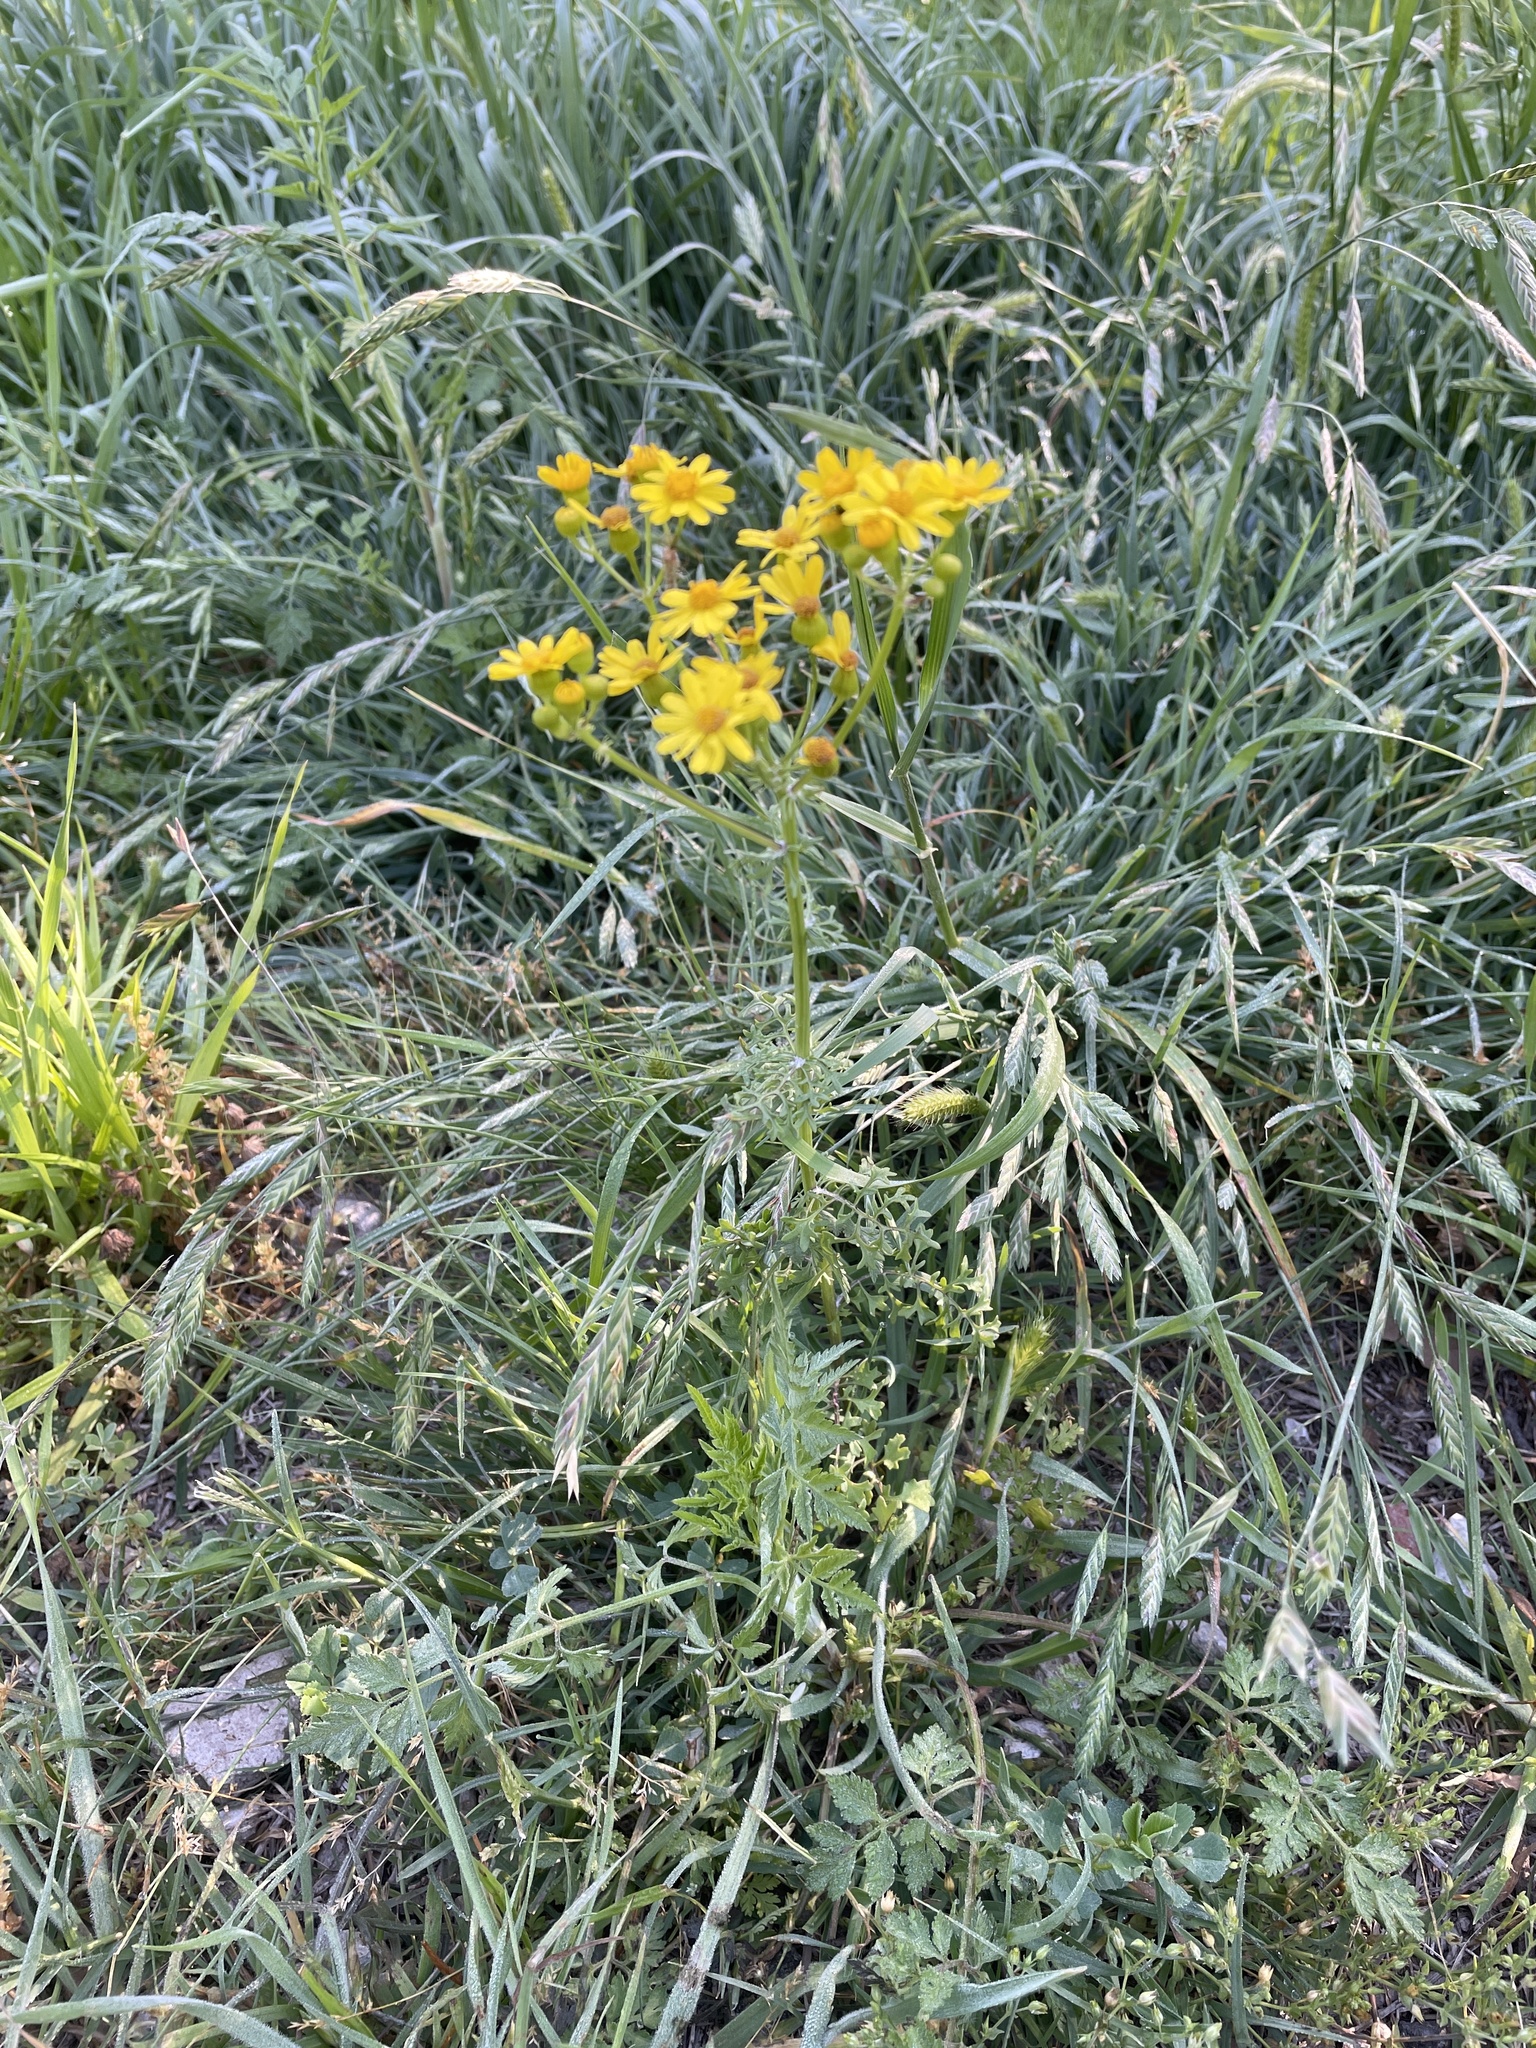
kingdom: Plantae
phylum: Tracheophyta
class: Magnoliopsida
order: Asterales
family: Asteraceae
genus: Packera
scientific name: Packera tampicana
